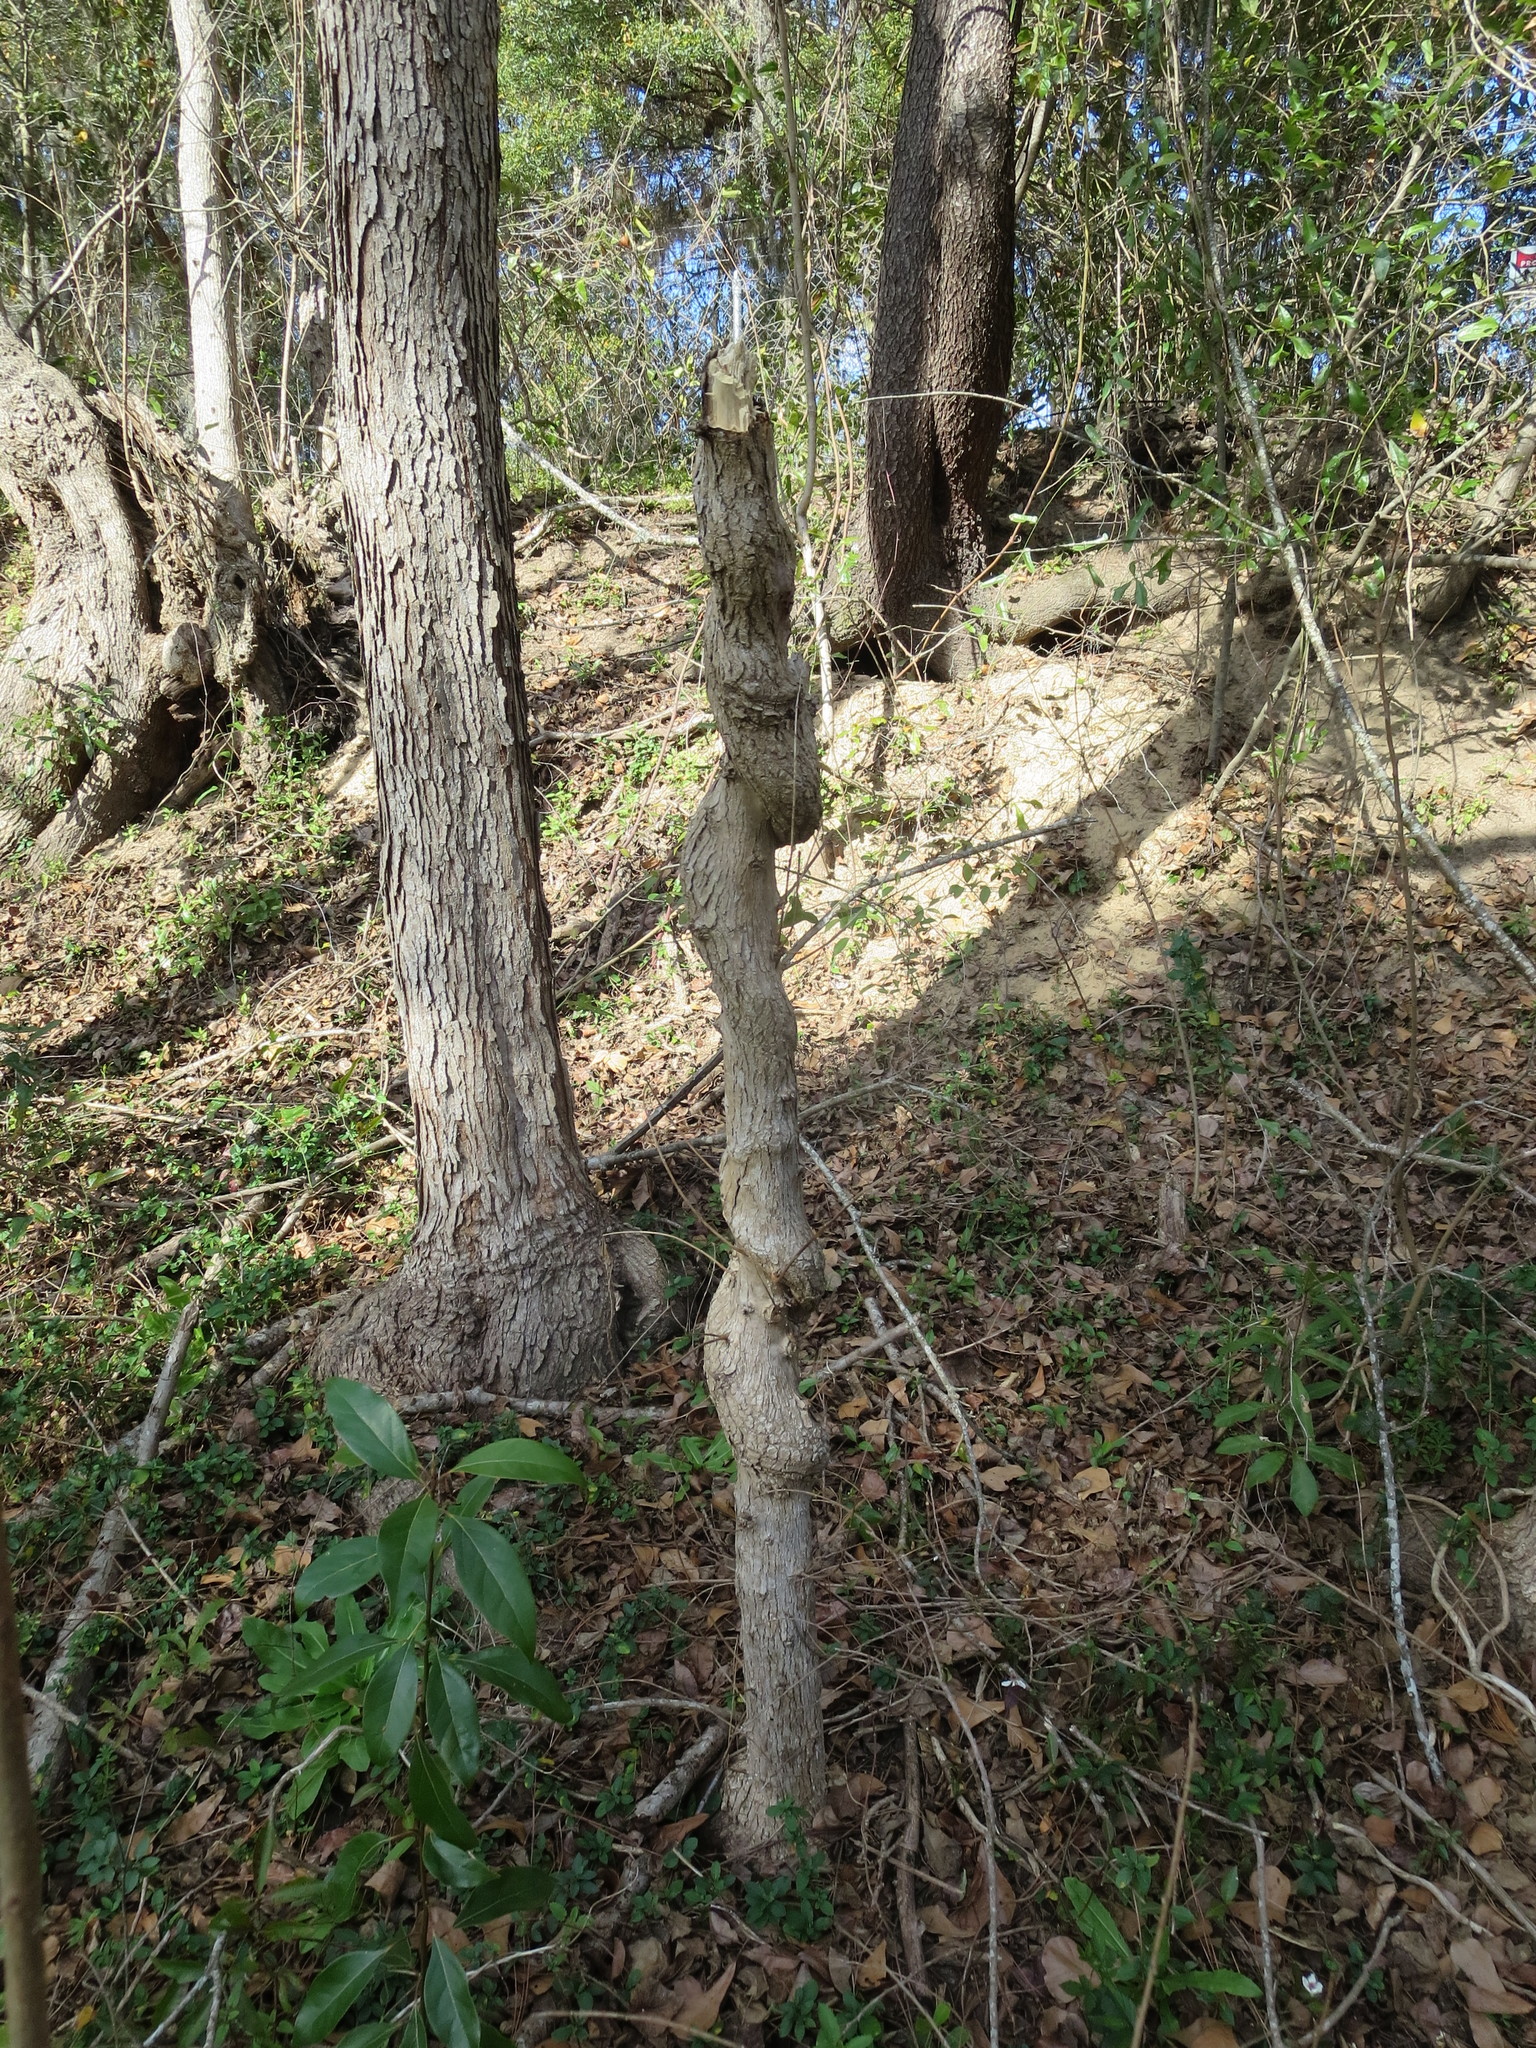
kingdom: Plantae
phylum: Tracheophyta
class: Magnoliopsida
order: Malpighiales
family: Euphorbiaceae
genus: Triadica
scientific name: Triadica sebifera
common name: Chinese tallow
